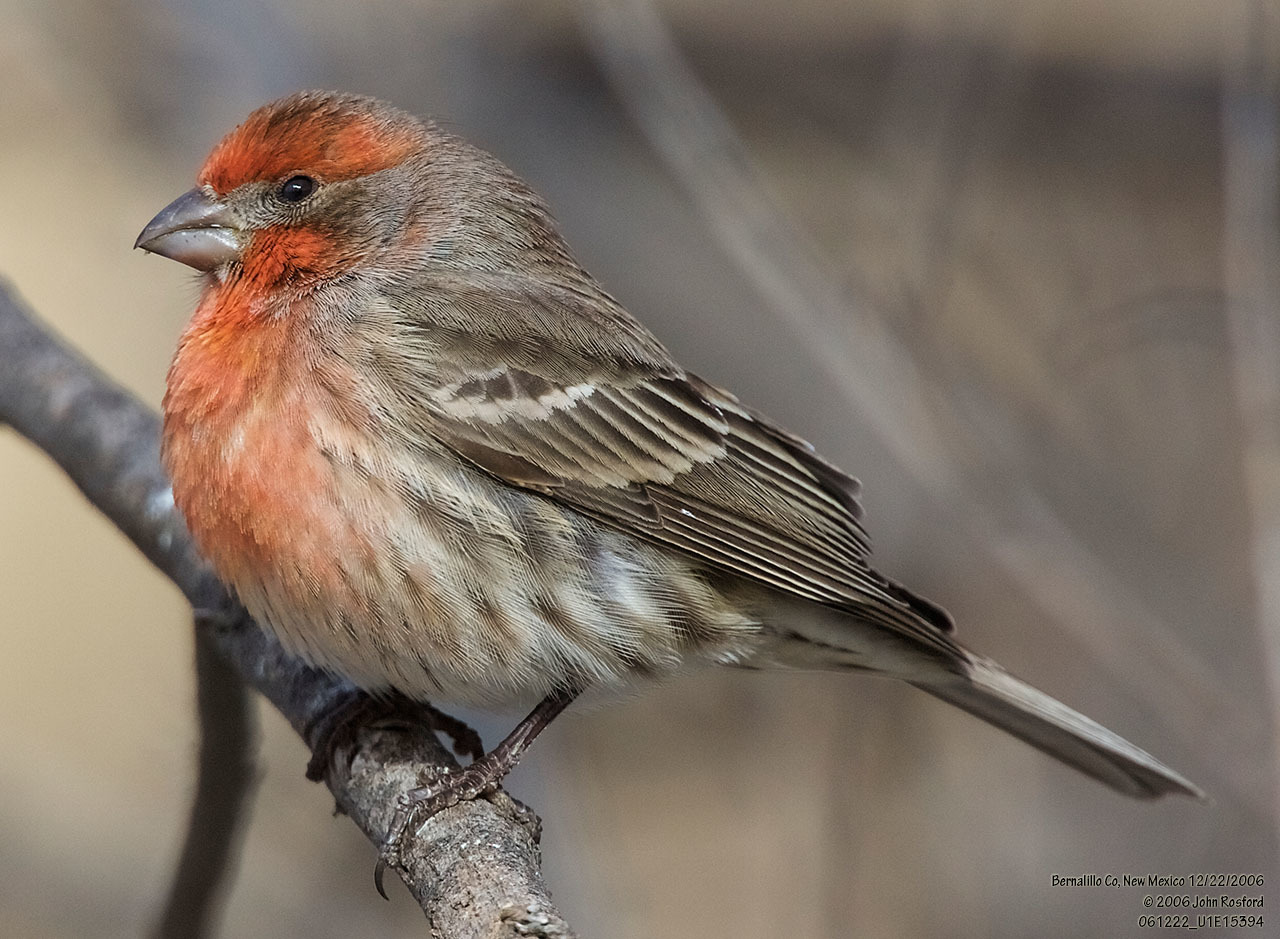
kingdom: Animalia
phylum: Chordata
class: Aves
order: Passeriformes
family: Fringillidae
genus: Haemorhous
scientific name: Haemorhous mexicanus
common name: House finch
